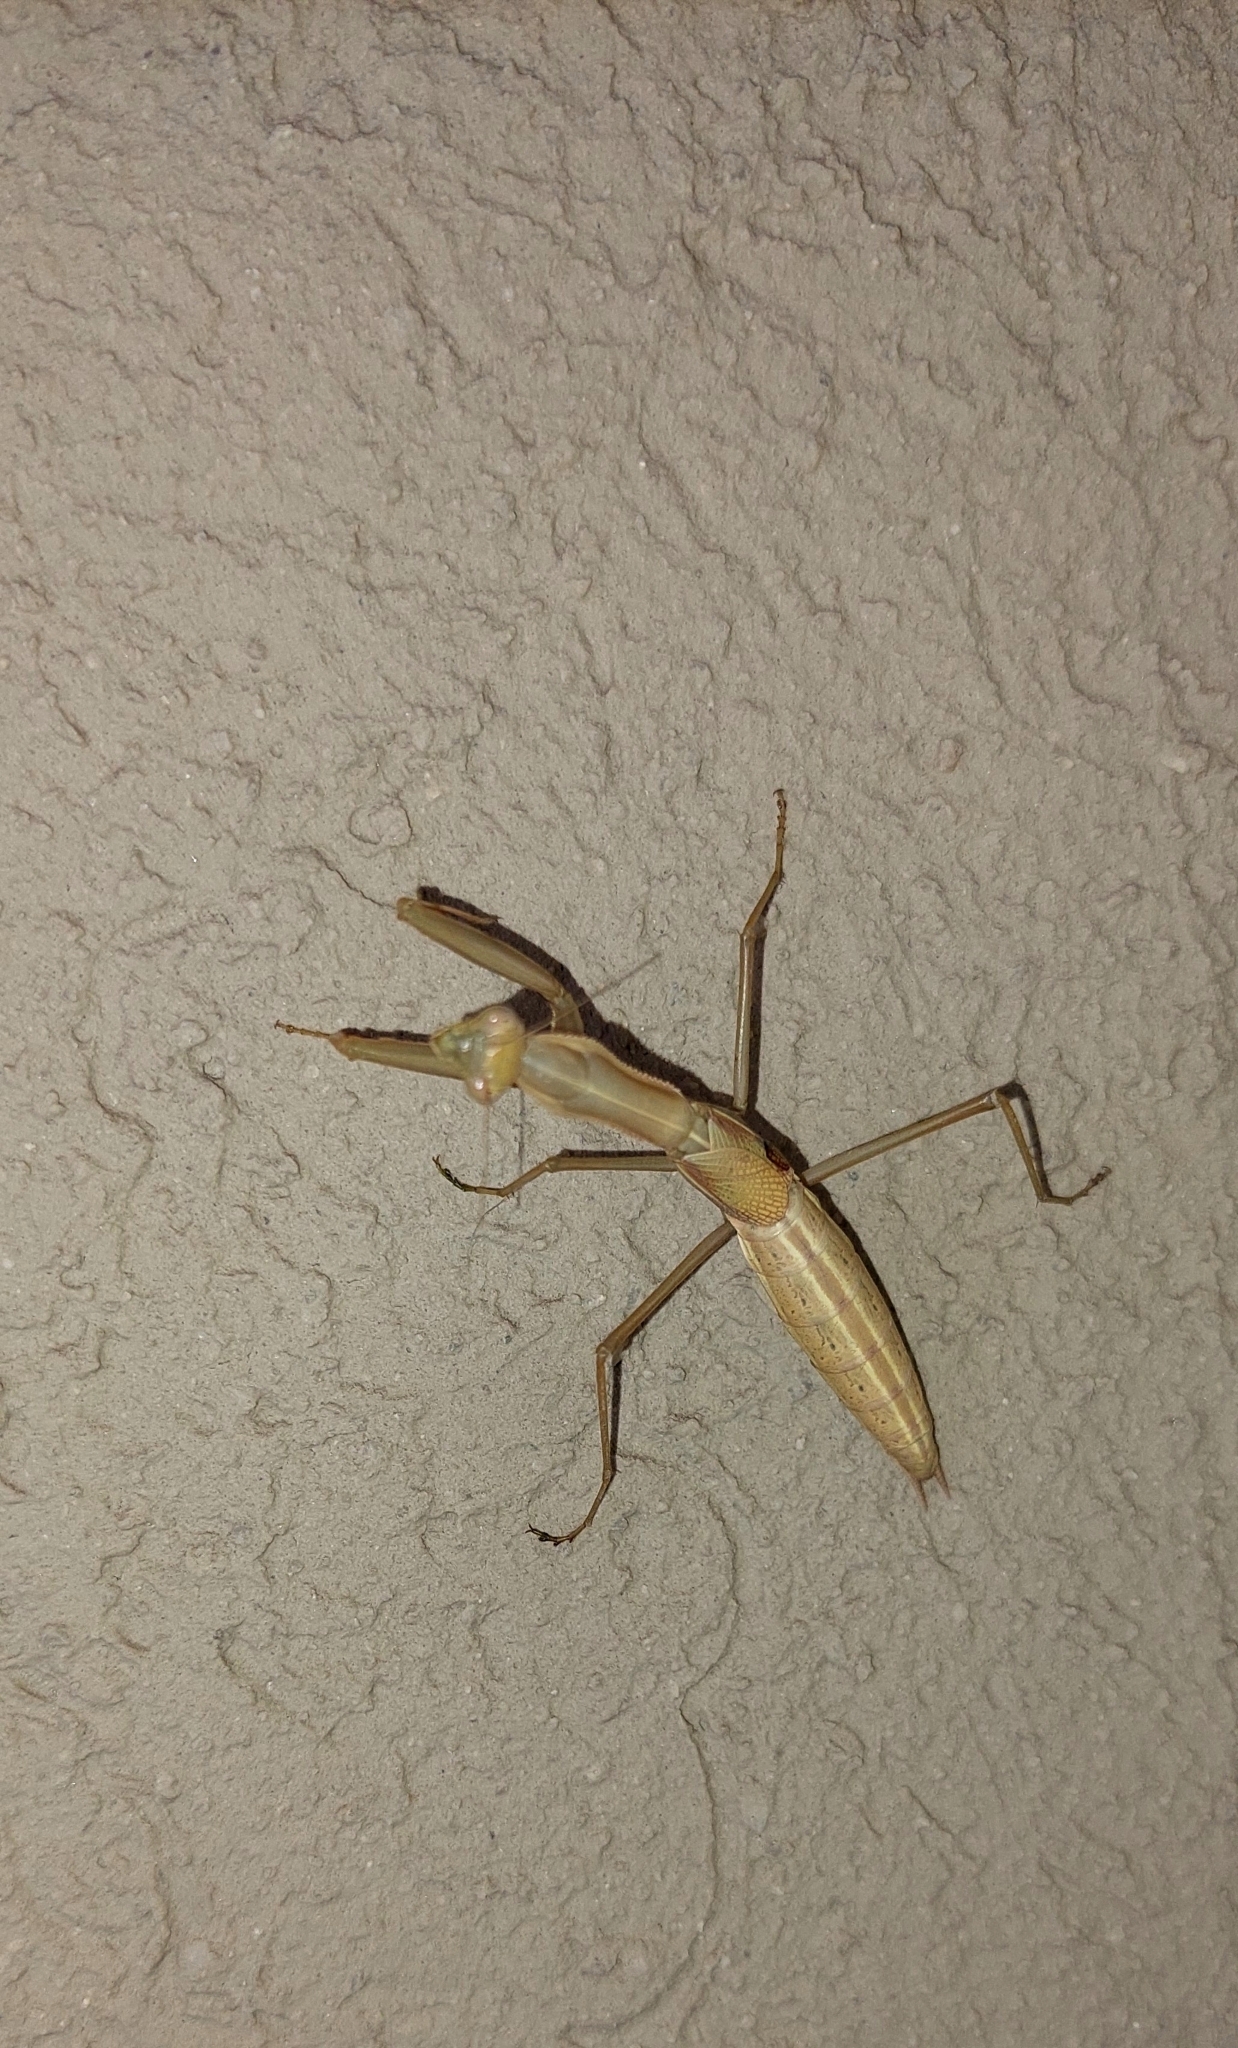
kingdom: Animalia
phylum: Arthropoda
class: Insecta
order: Mantodea
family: Coptopterygidae
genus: Coptopteryx
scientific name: Coptopteryx argentina
